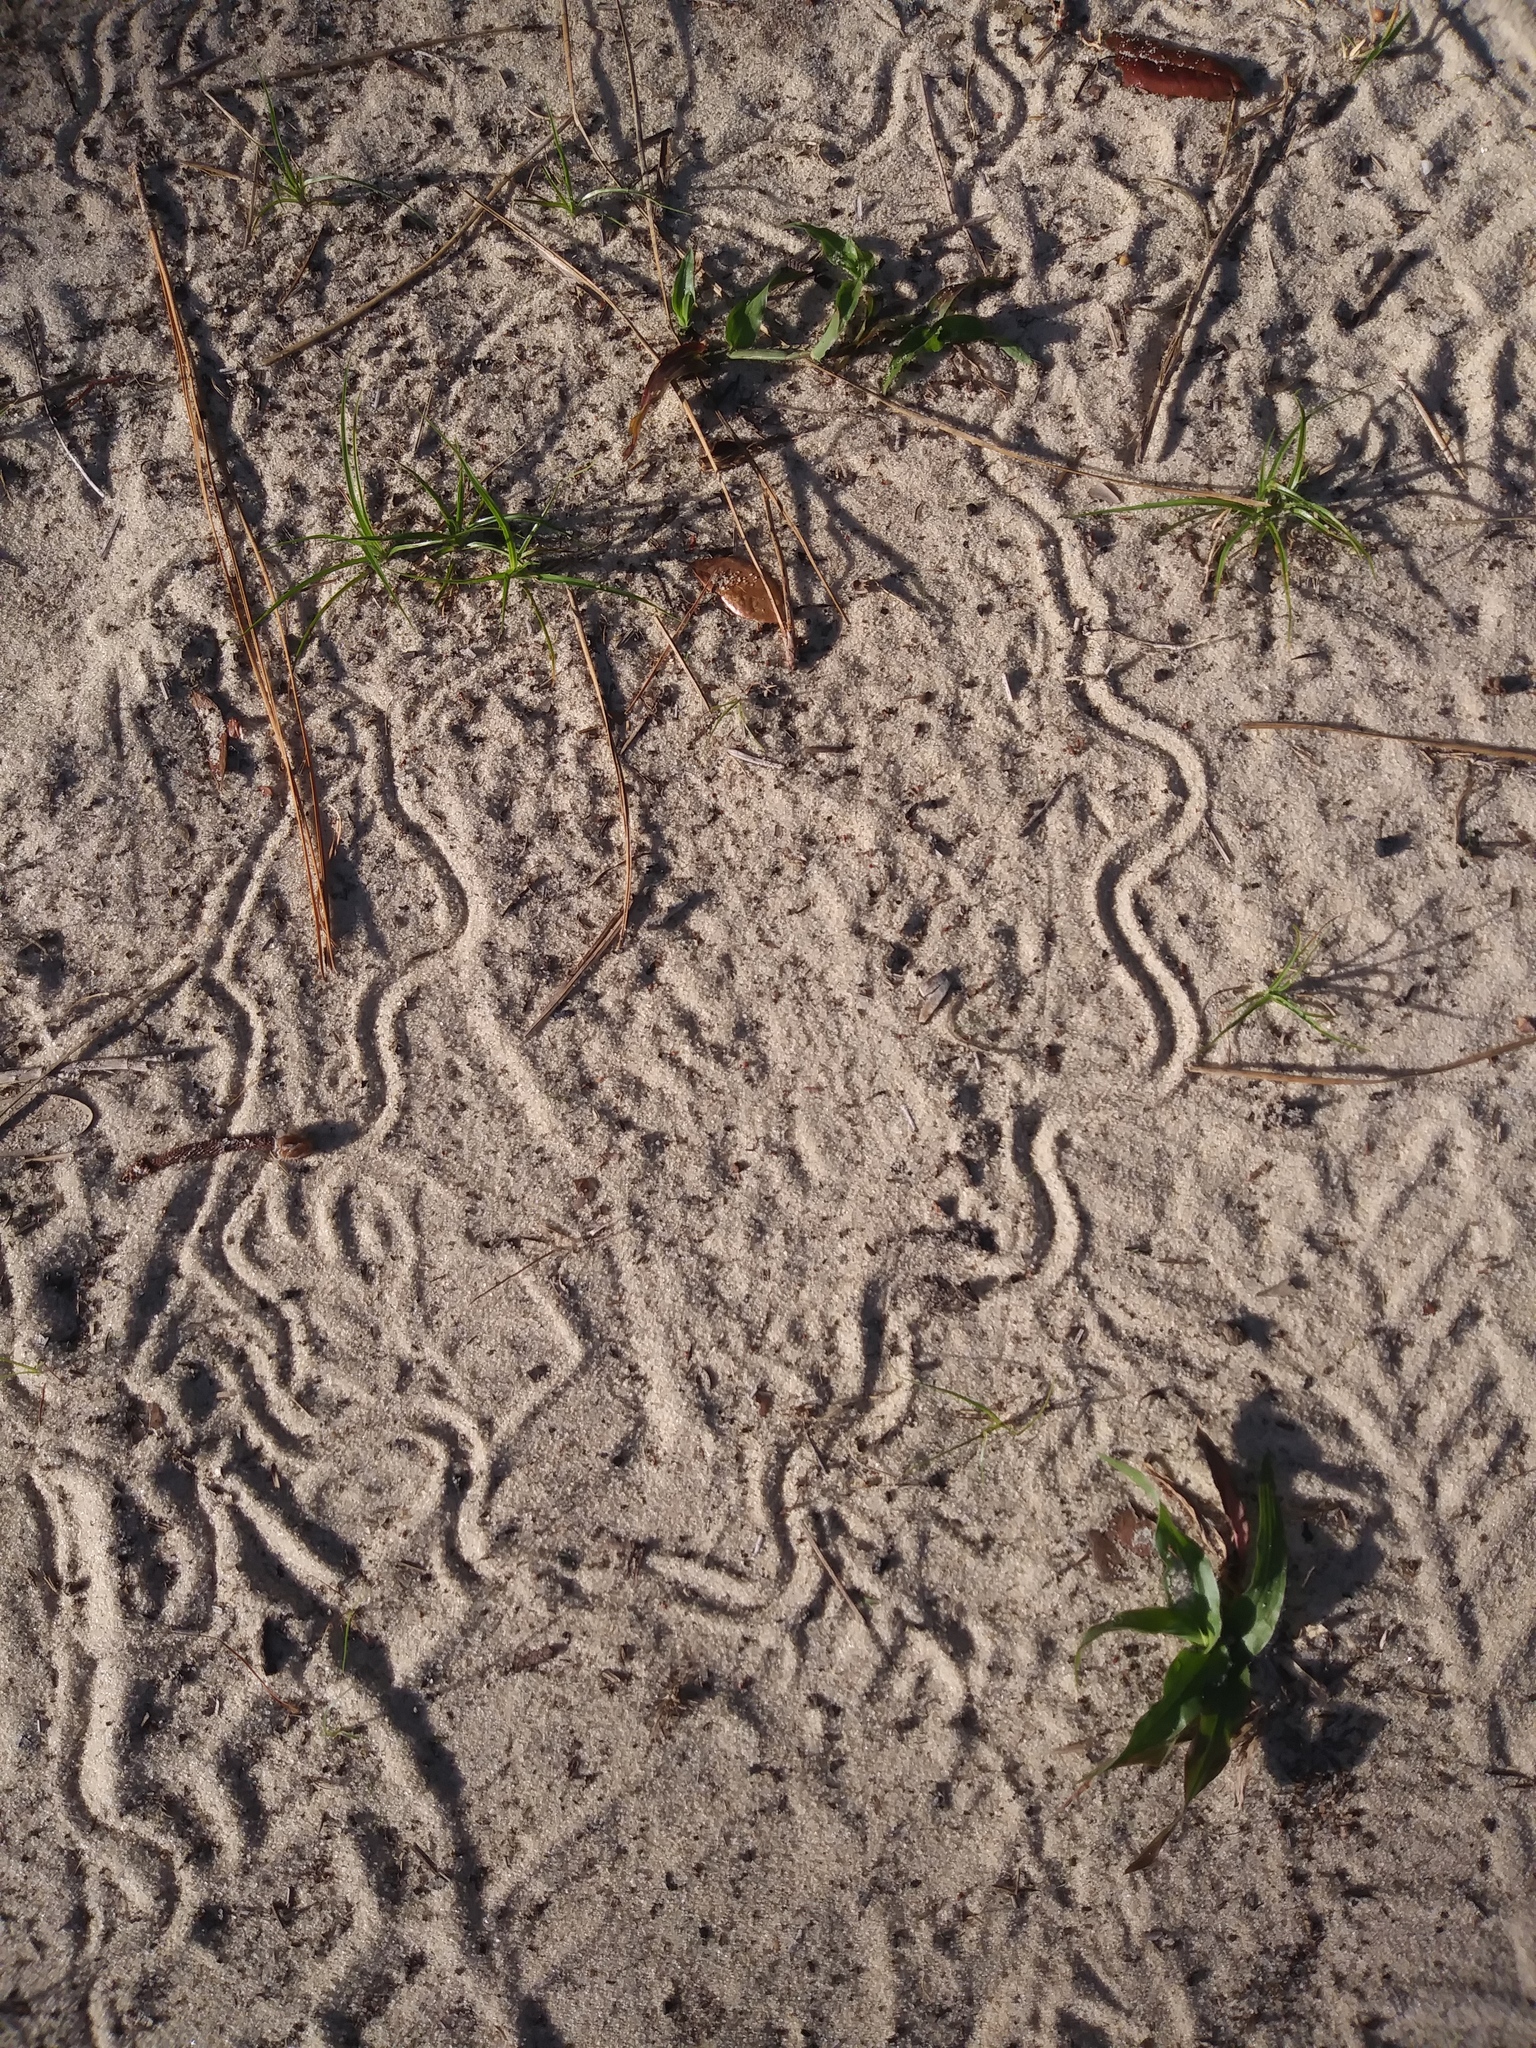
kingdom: Animalia
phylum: Chordata
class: Squamata
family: Scincidae
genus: Plestiodon
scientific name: Plestiodon reynoldsi
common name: Florida sand skink
